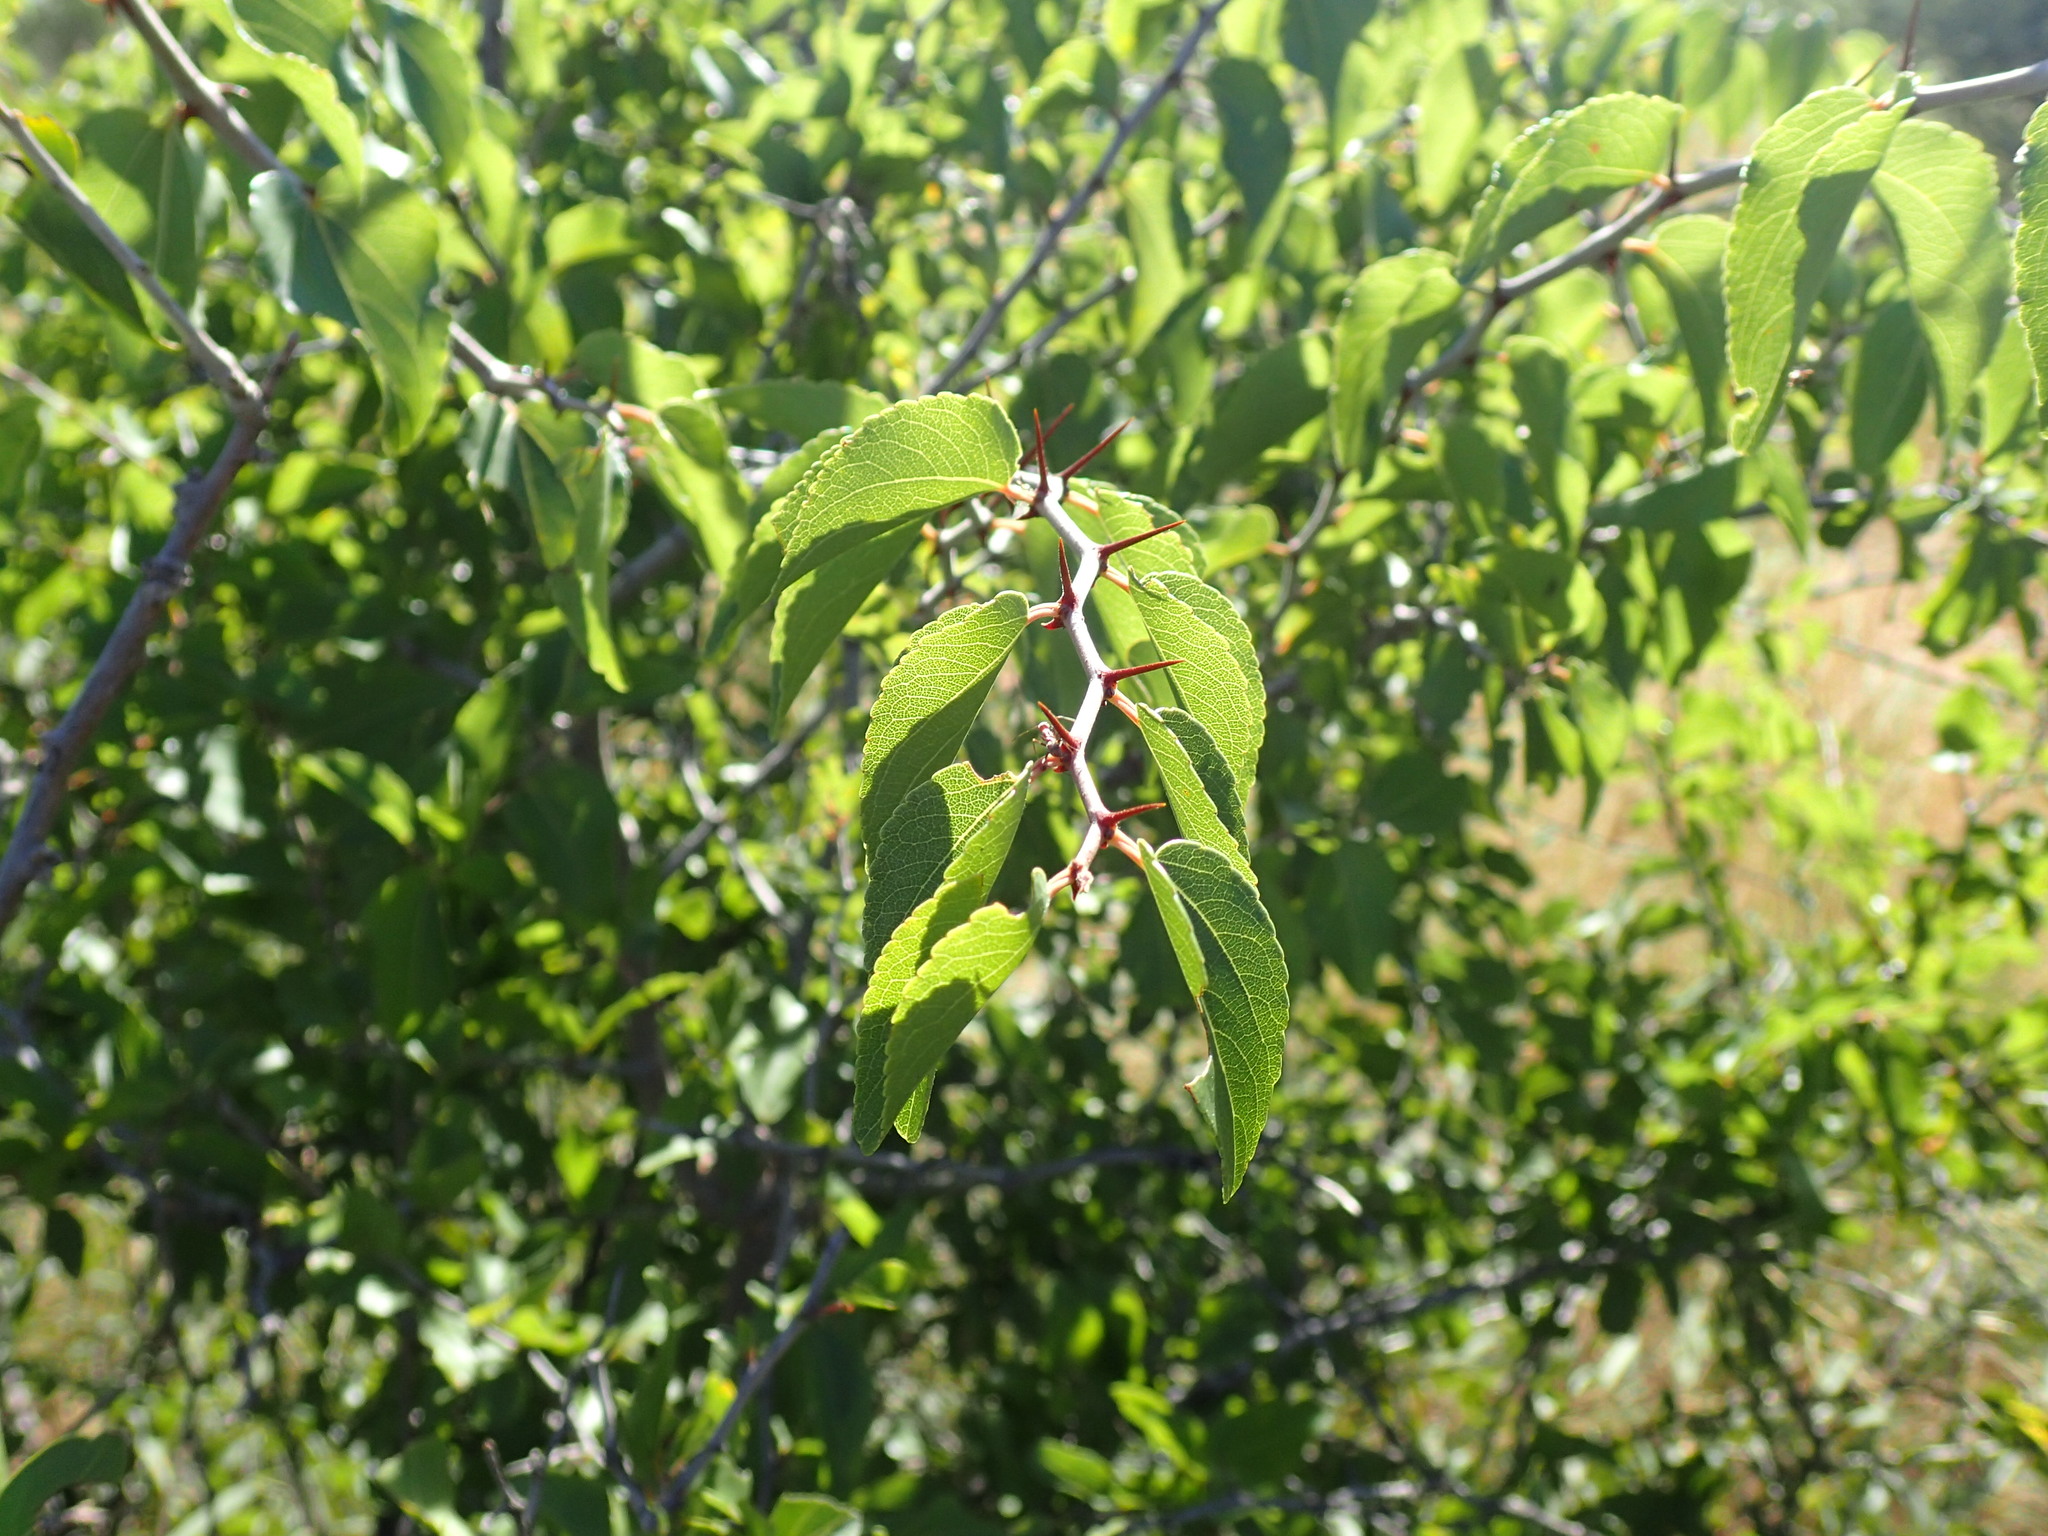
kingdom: Plantae
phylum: Tracheophyta
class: Magnoliopsida
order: Rosales
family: Rhamnaceae
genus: Ziziphus
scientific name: Ziziphus mucronata
